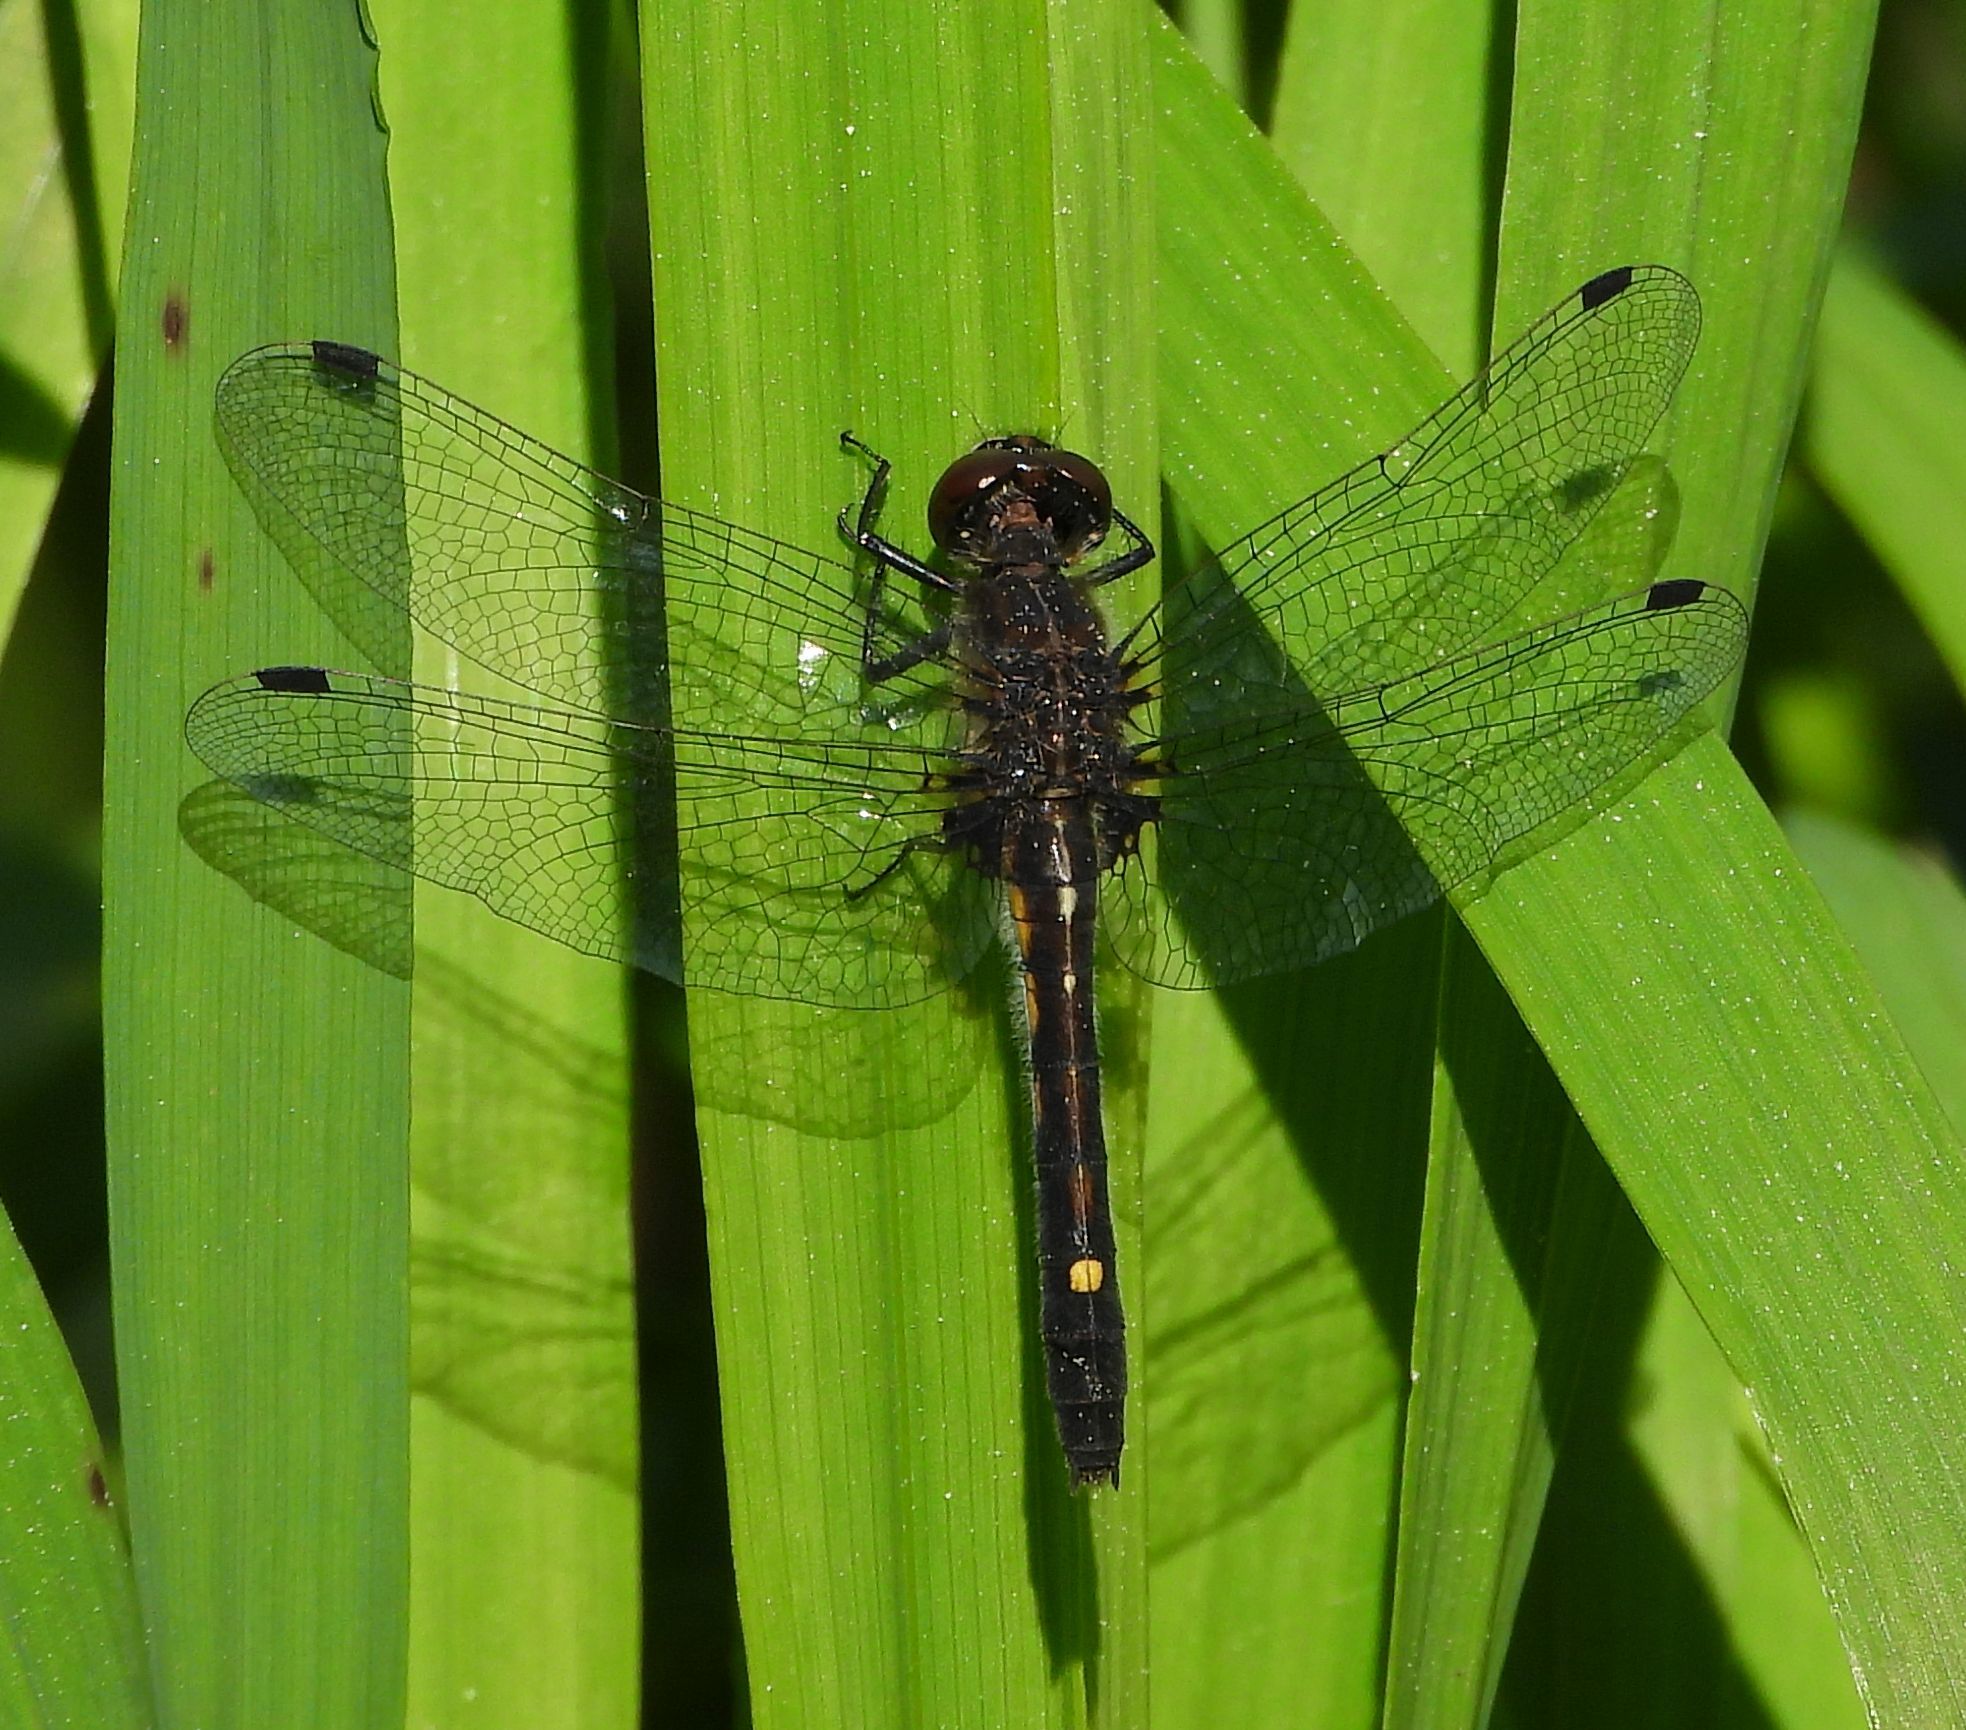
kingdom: Animalia
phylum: Arthropoda
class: Insecta
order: Odonata
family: Libellulidae
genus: Leucorrhinia
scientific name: Leucorrhinia intacta
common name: Dot-tailed whiteface
